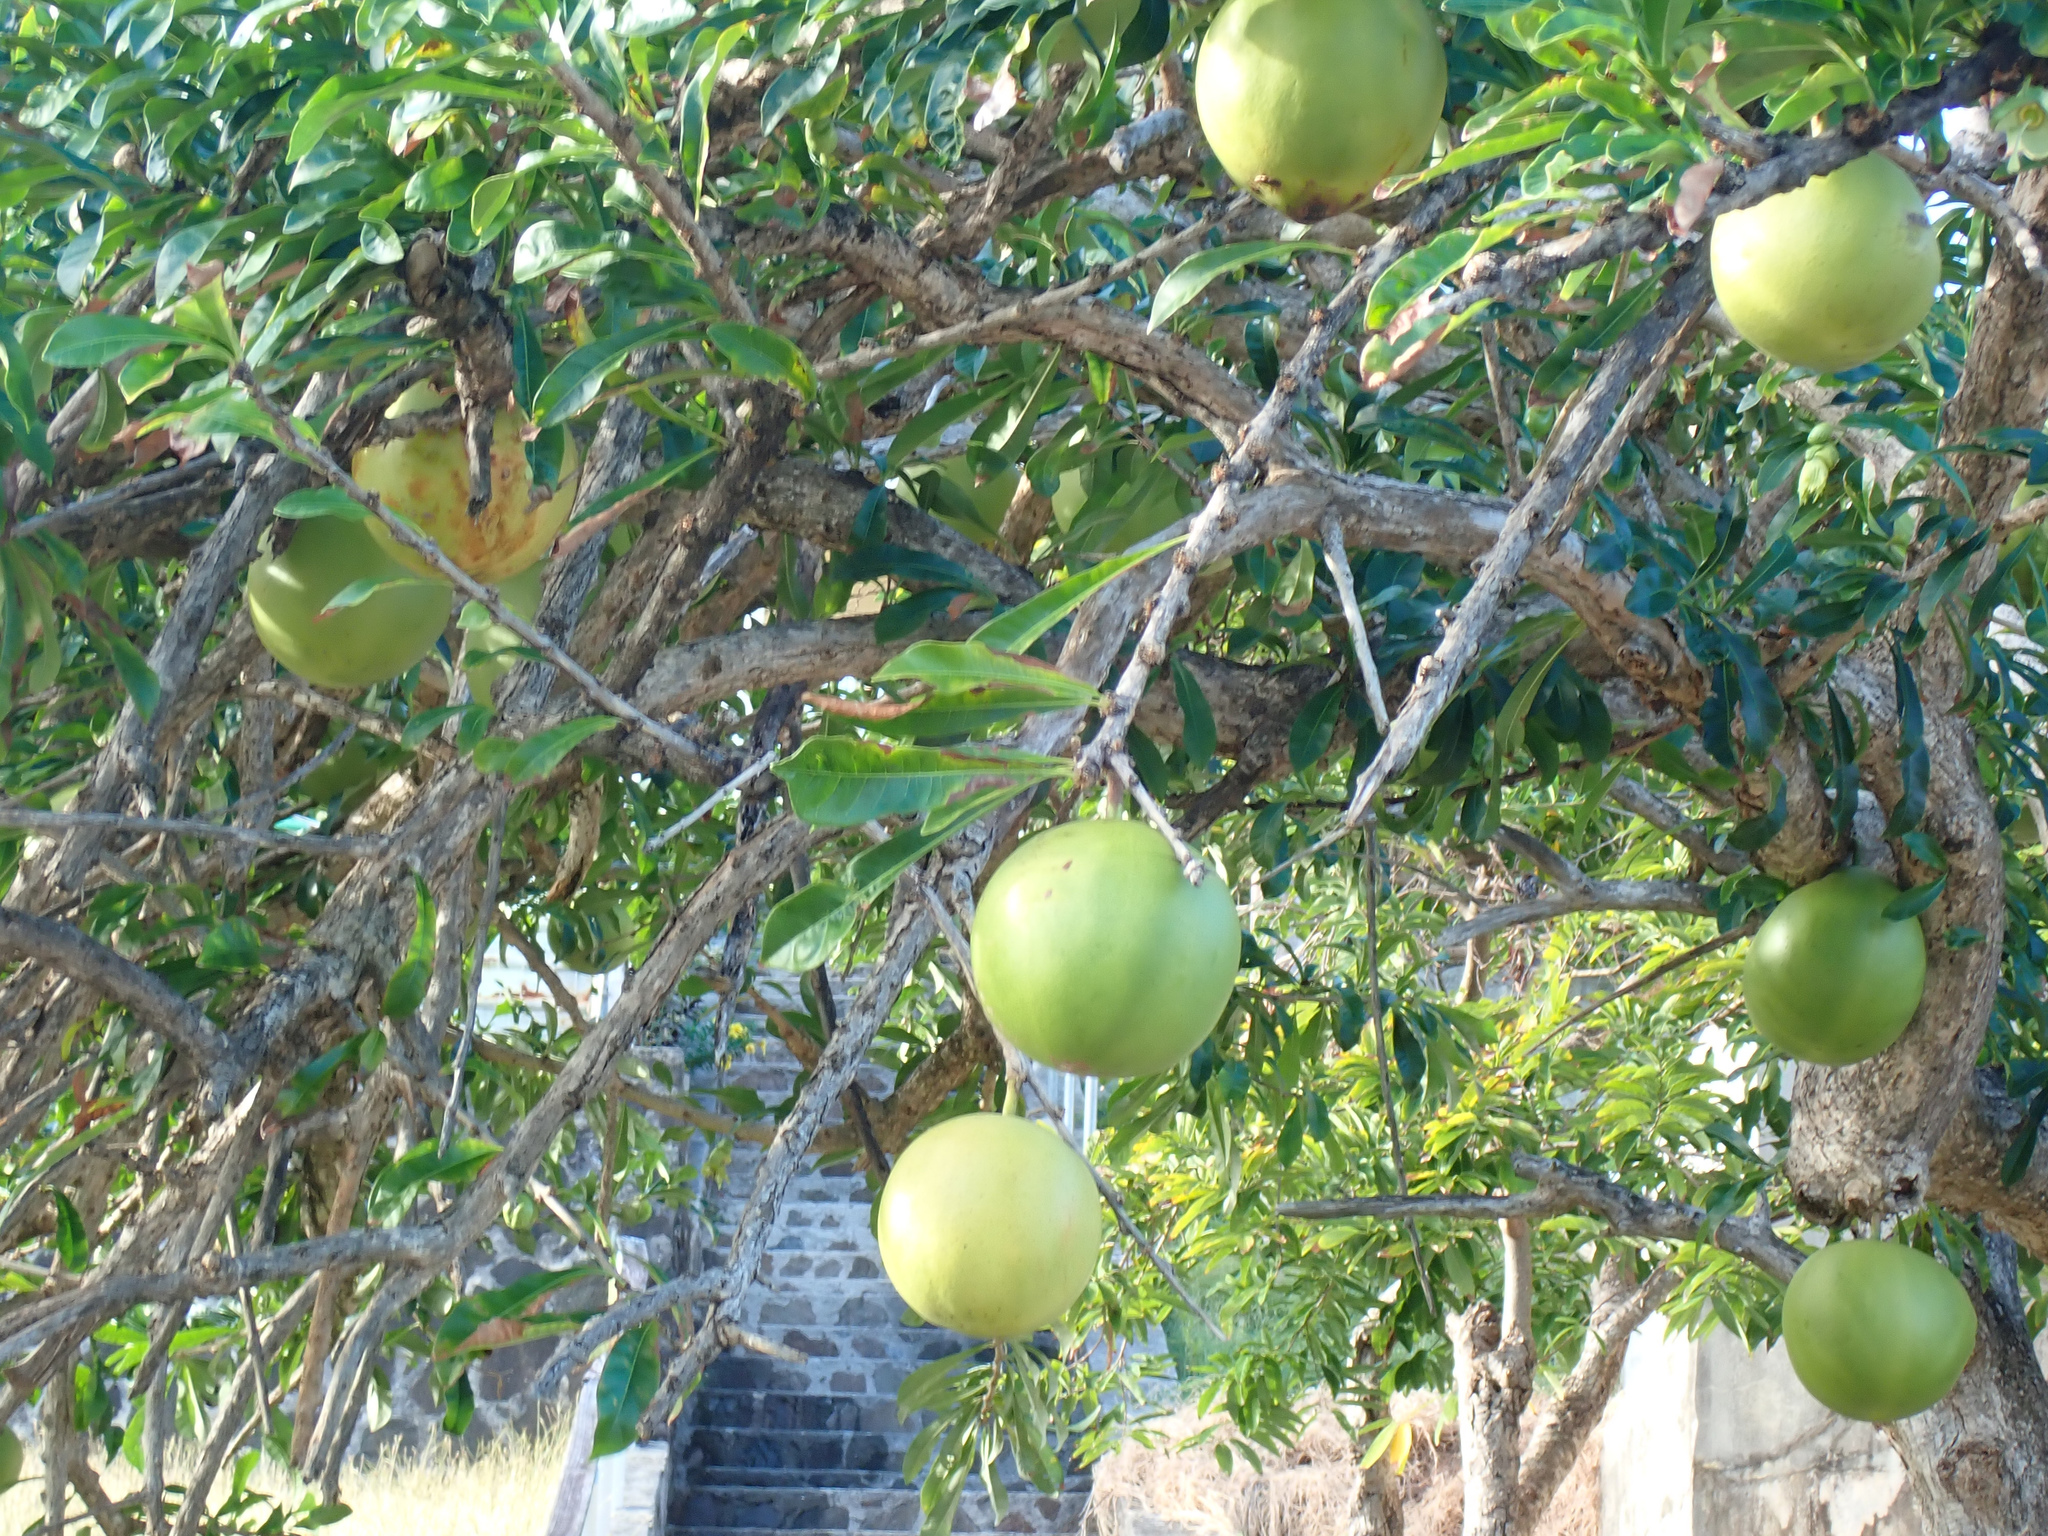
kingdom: Plantae
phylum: Tracheophyta
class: Magnoliopsida
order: Lamiales
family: Bignoniaceae
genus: Crescentia
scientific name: Crescentia cujete
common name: Calabash
